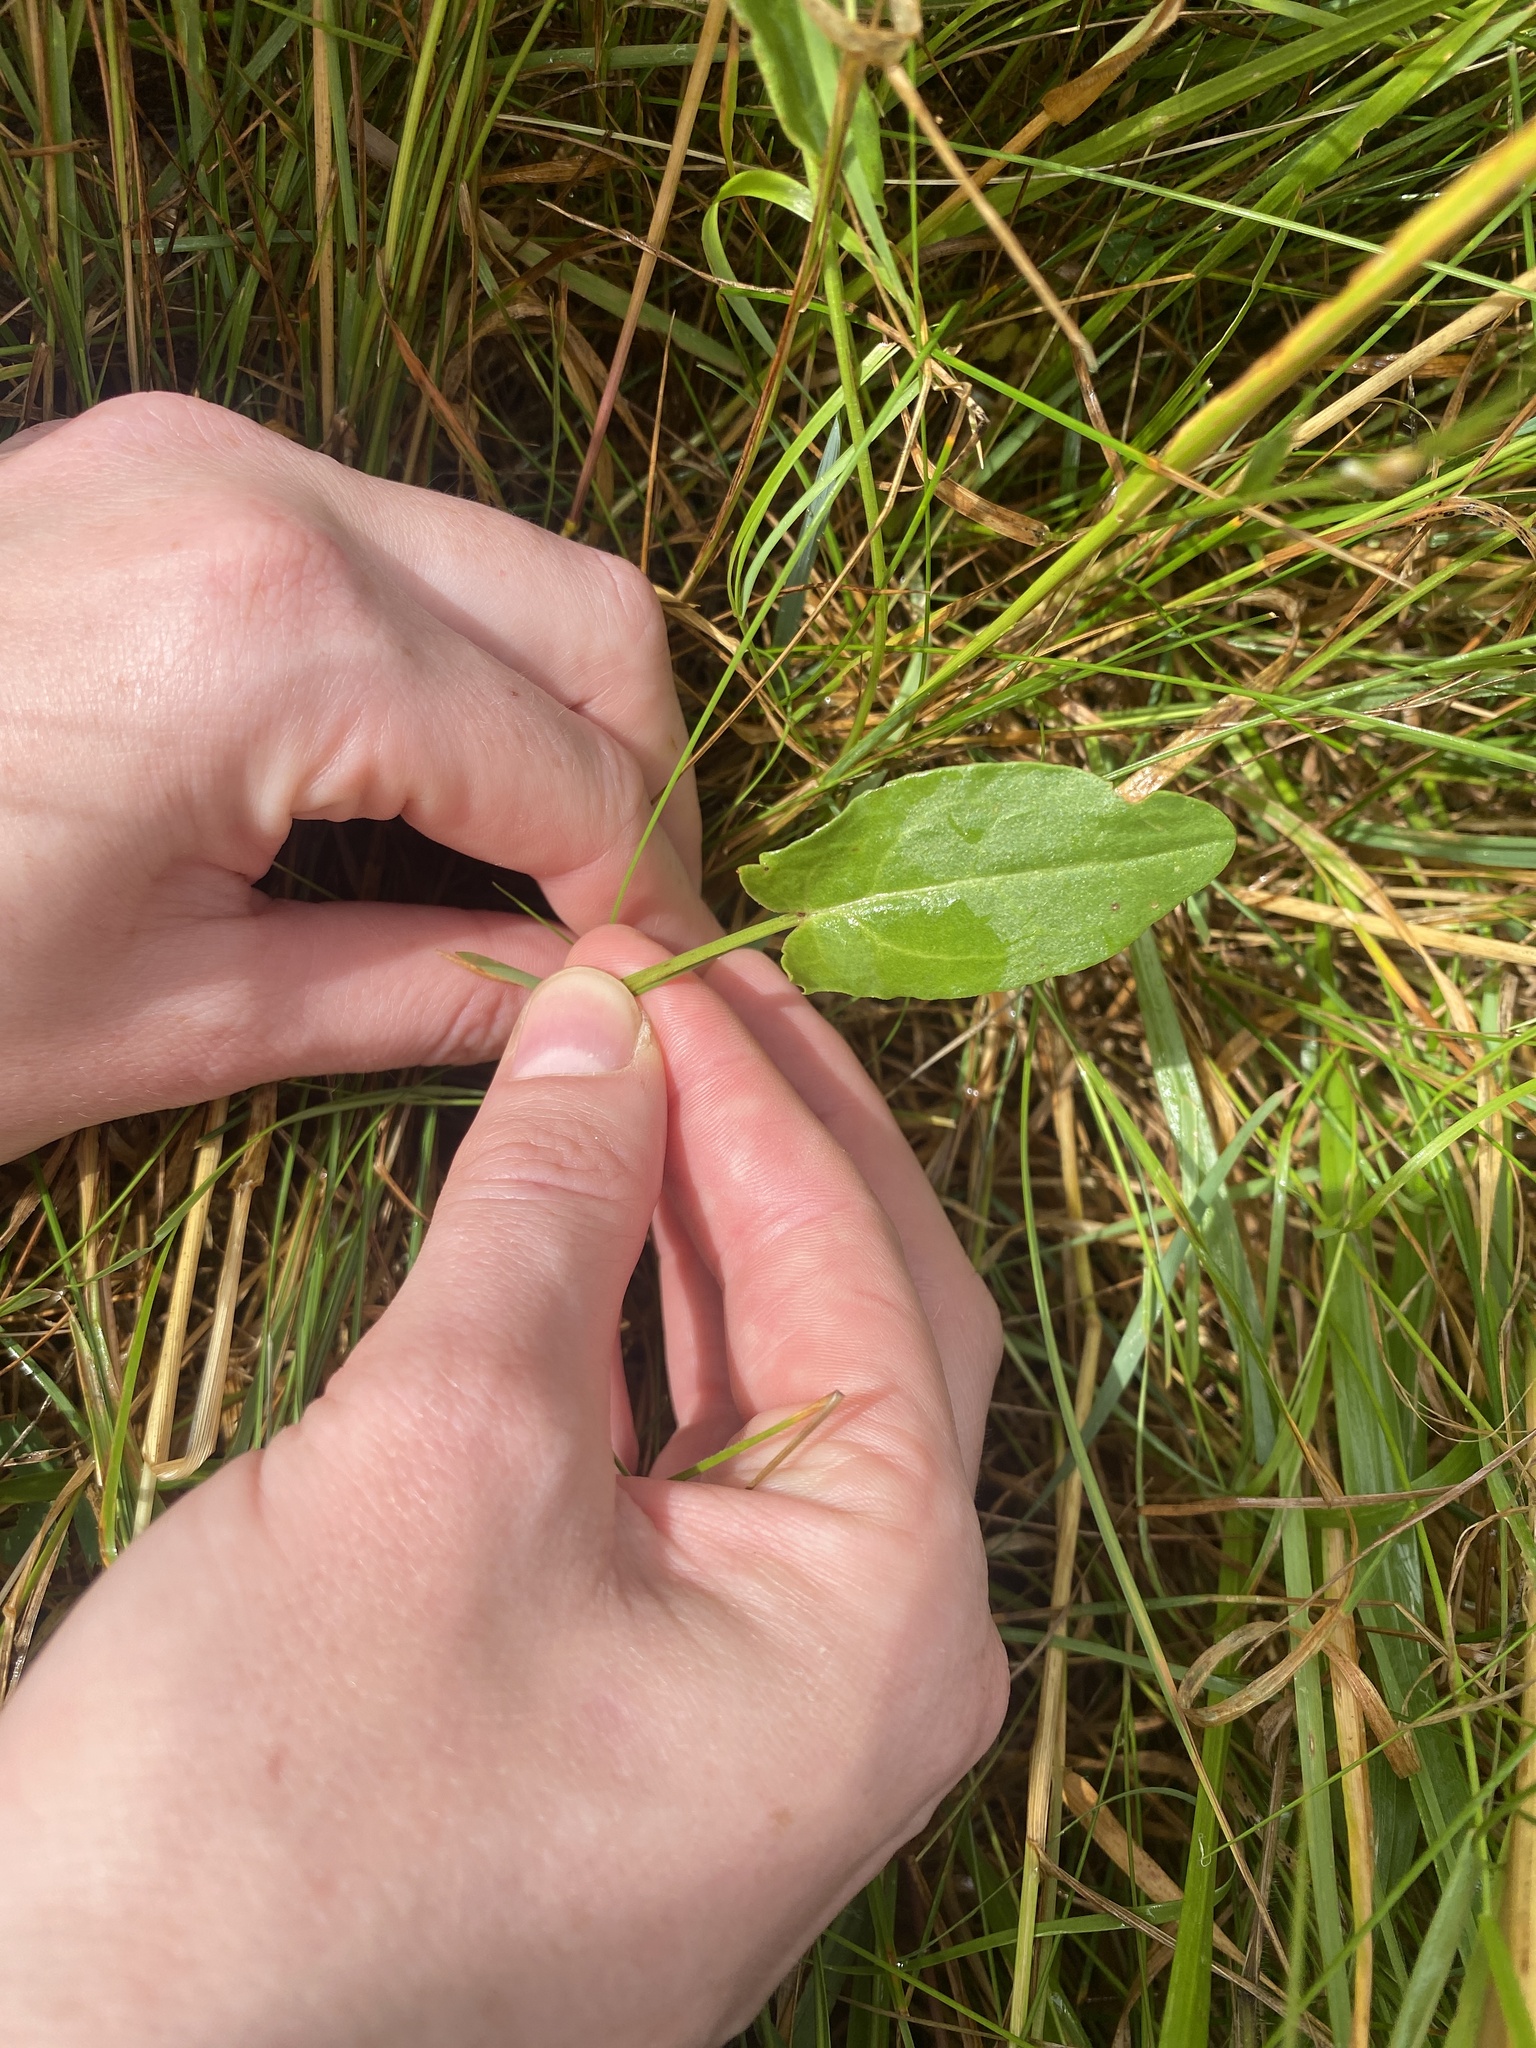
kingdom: Plantae
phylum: Tracheophyta
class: Magnoliopsida
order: Caryophyllales
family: Polygonaceae
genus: Rumex
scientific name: Rumex acetosa
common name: Garden sorrel
